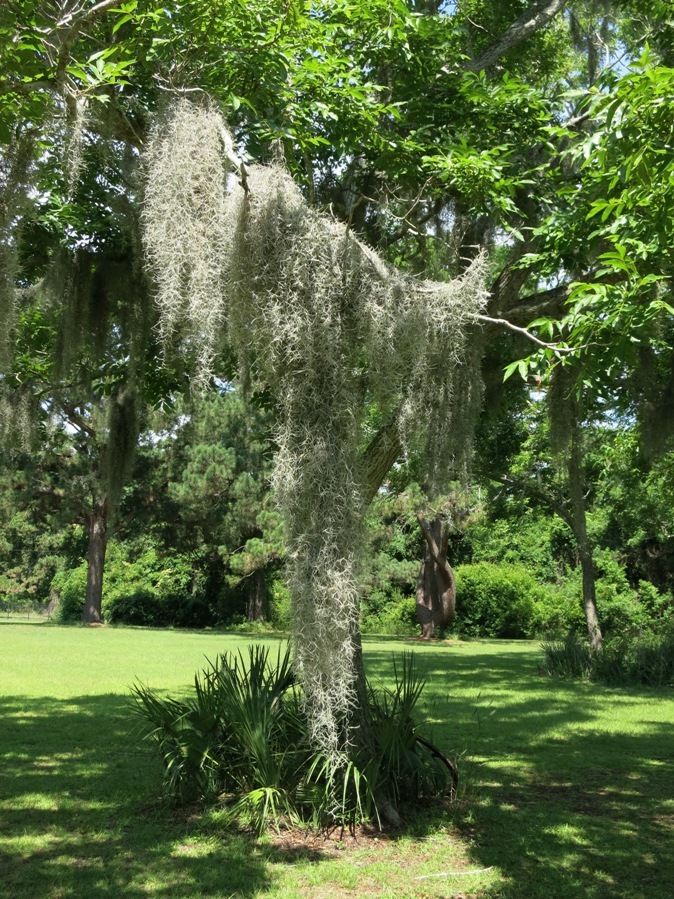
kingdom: Plantae
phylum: Tracheophyta
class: Liliopsida
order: Poales
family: Bromeliaceae
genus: Tillandsia
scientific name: Tillandsia usneoides
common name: Spanish moss
